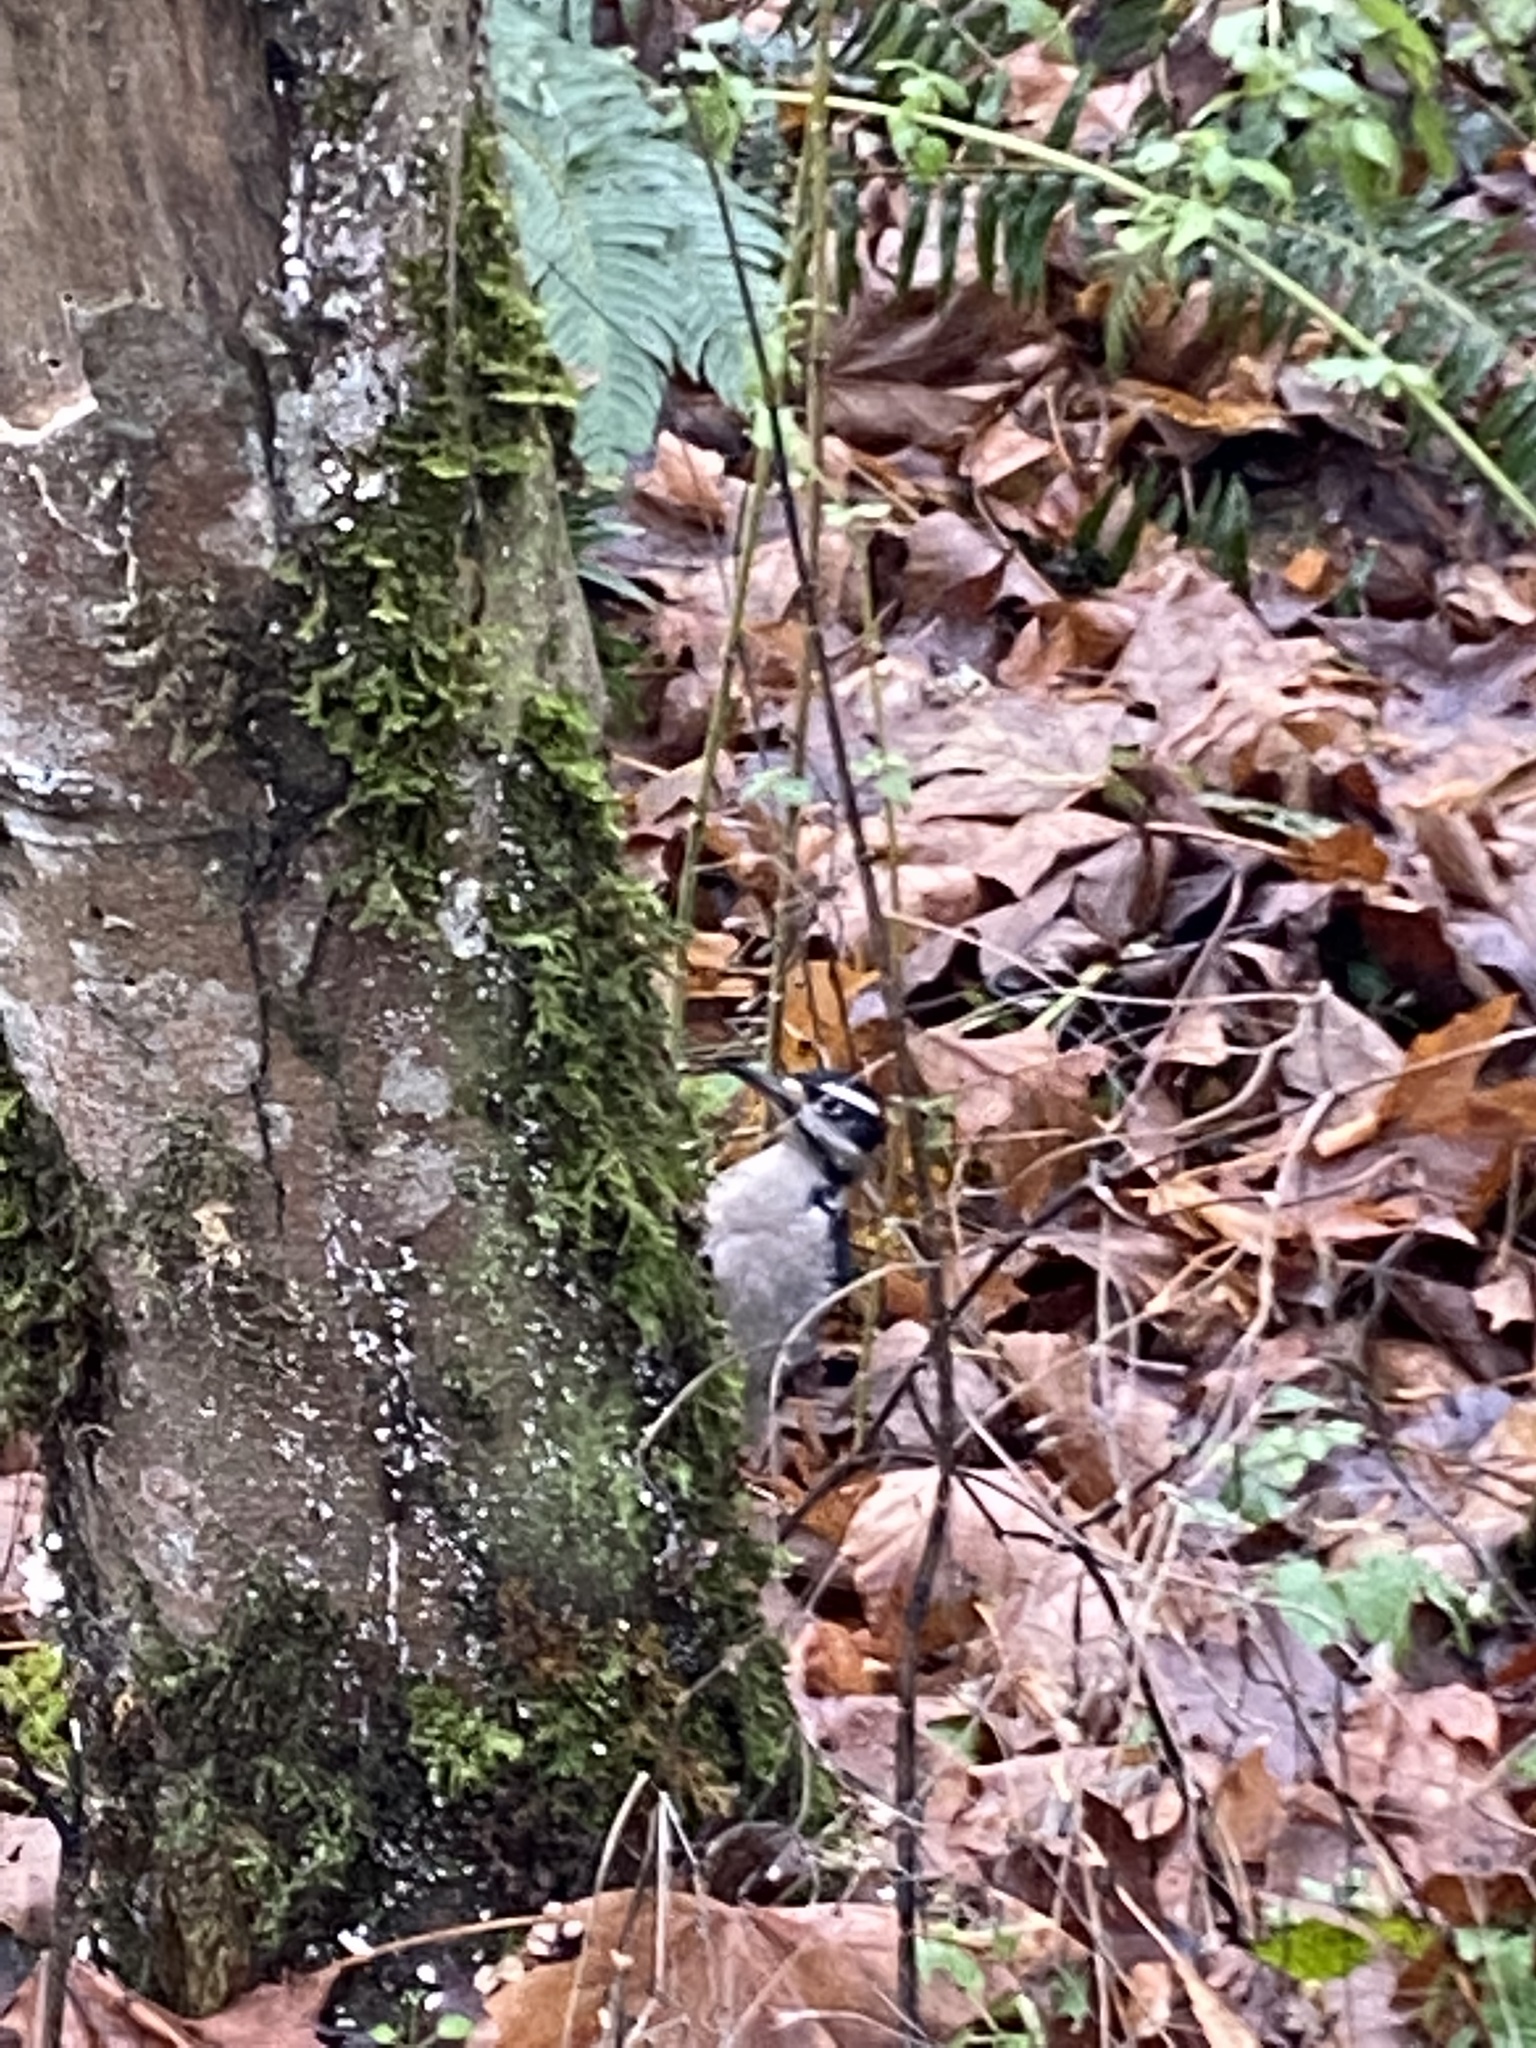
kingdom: Animalia
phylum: Chordata
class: Aves
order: Piciformes
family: Picidae
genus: Leuconotopicus
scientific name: Leuconotopicus villosus
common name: Hairy woodpecker
